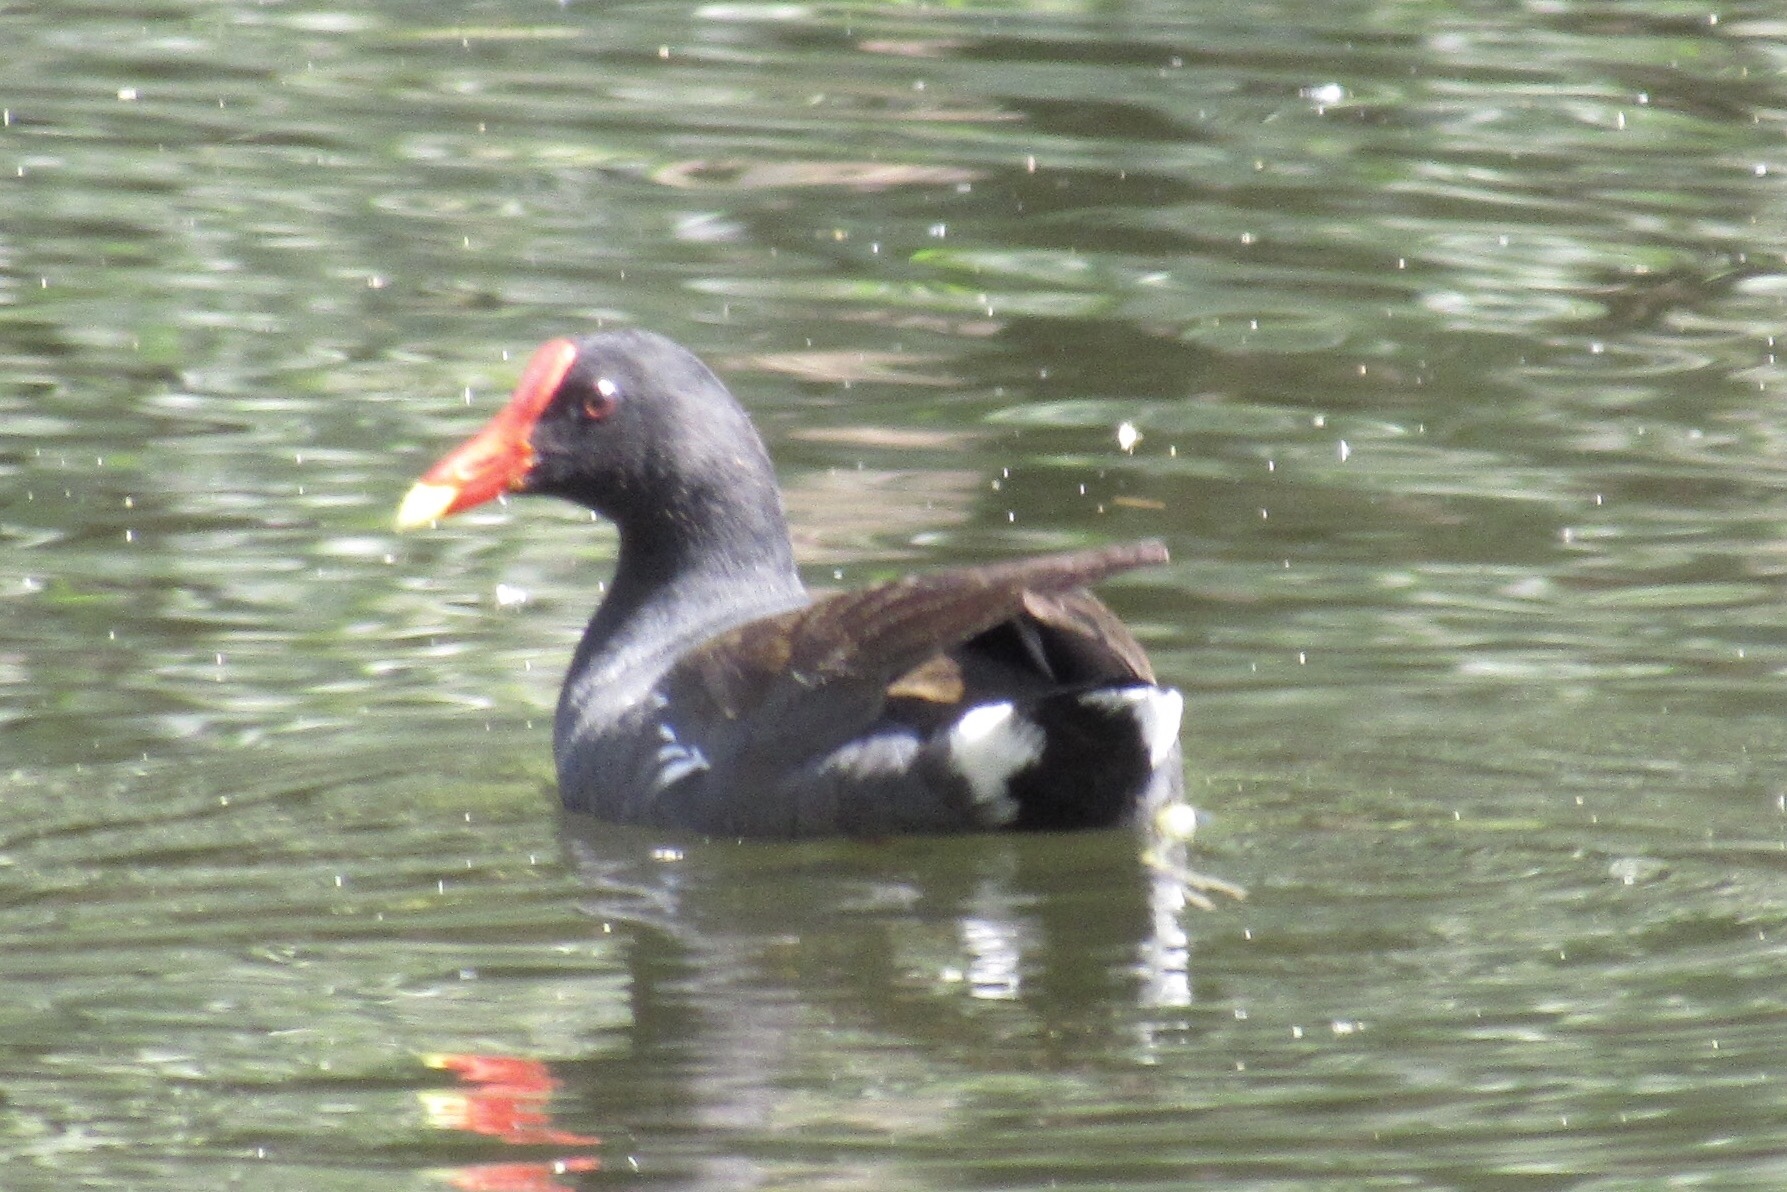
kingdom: Animalia
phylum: Chordata
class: Aves
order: Gruiformes
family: Rallidae
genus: Gallinula
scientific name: Gallinula chloropus
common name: Common moorhen
